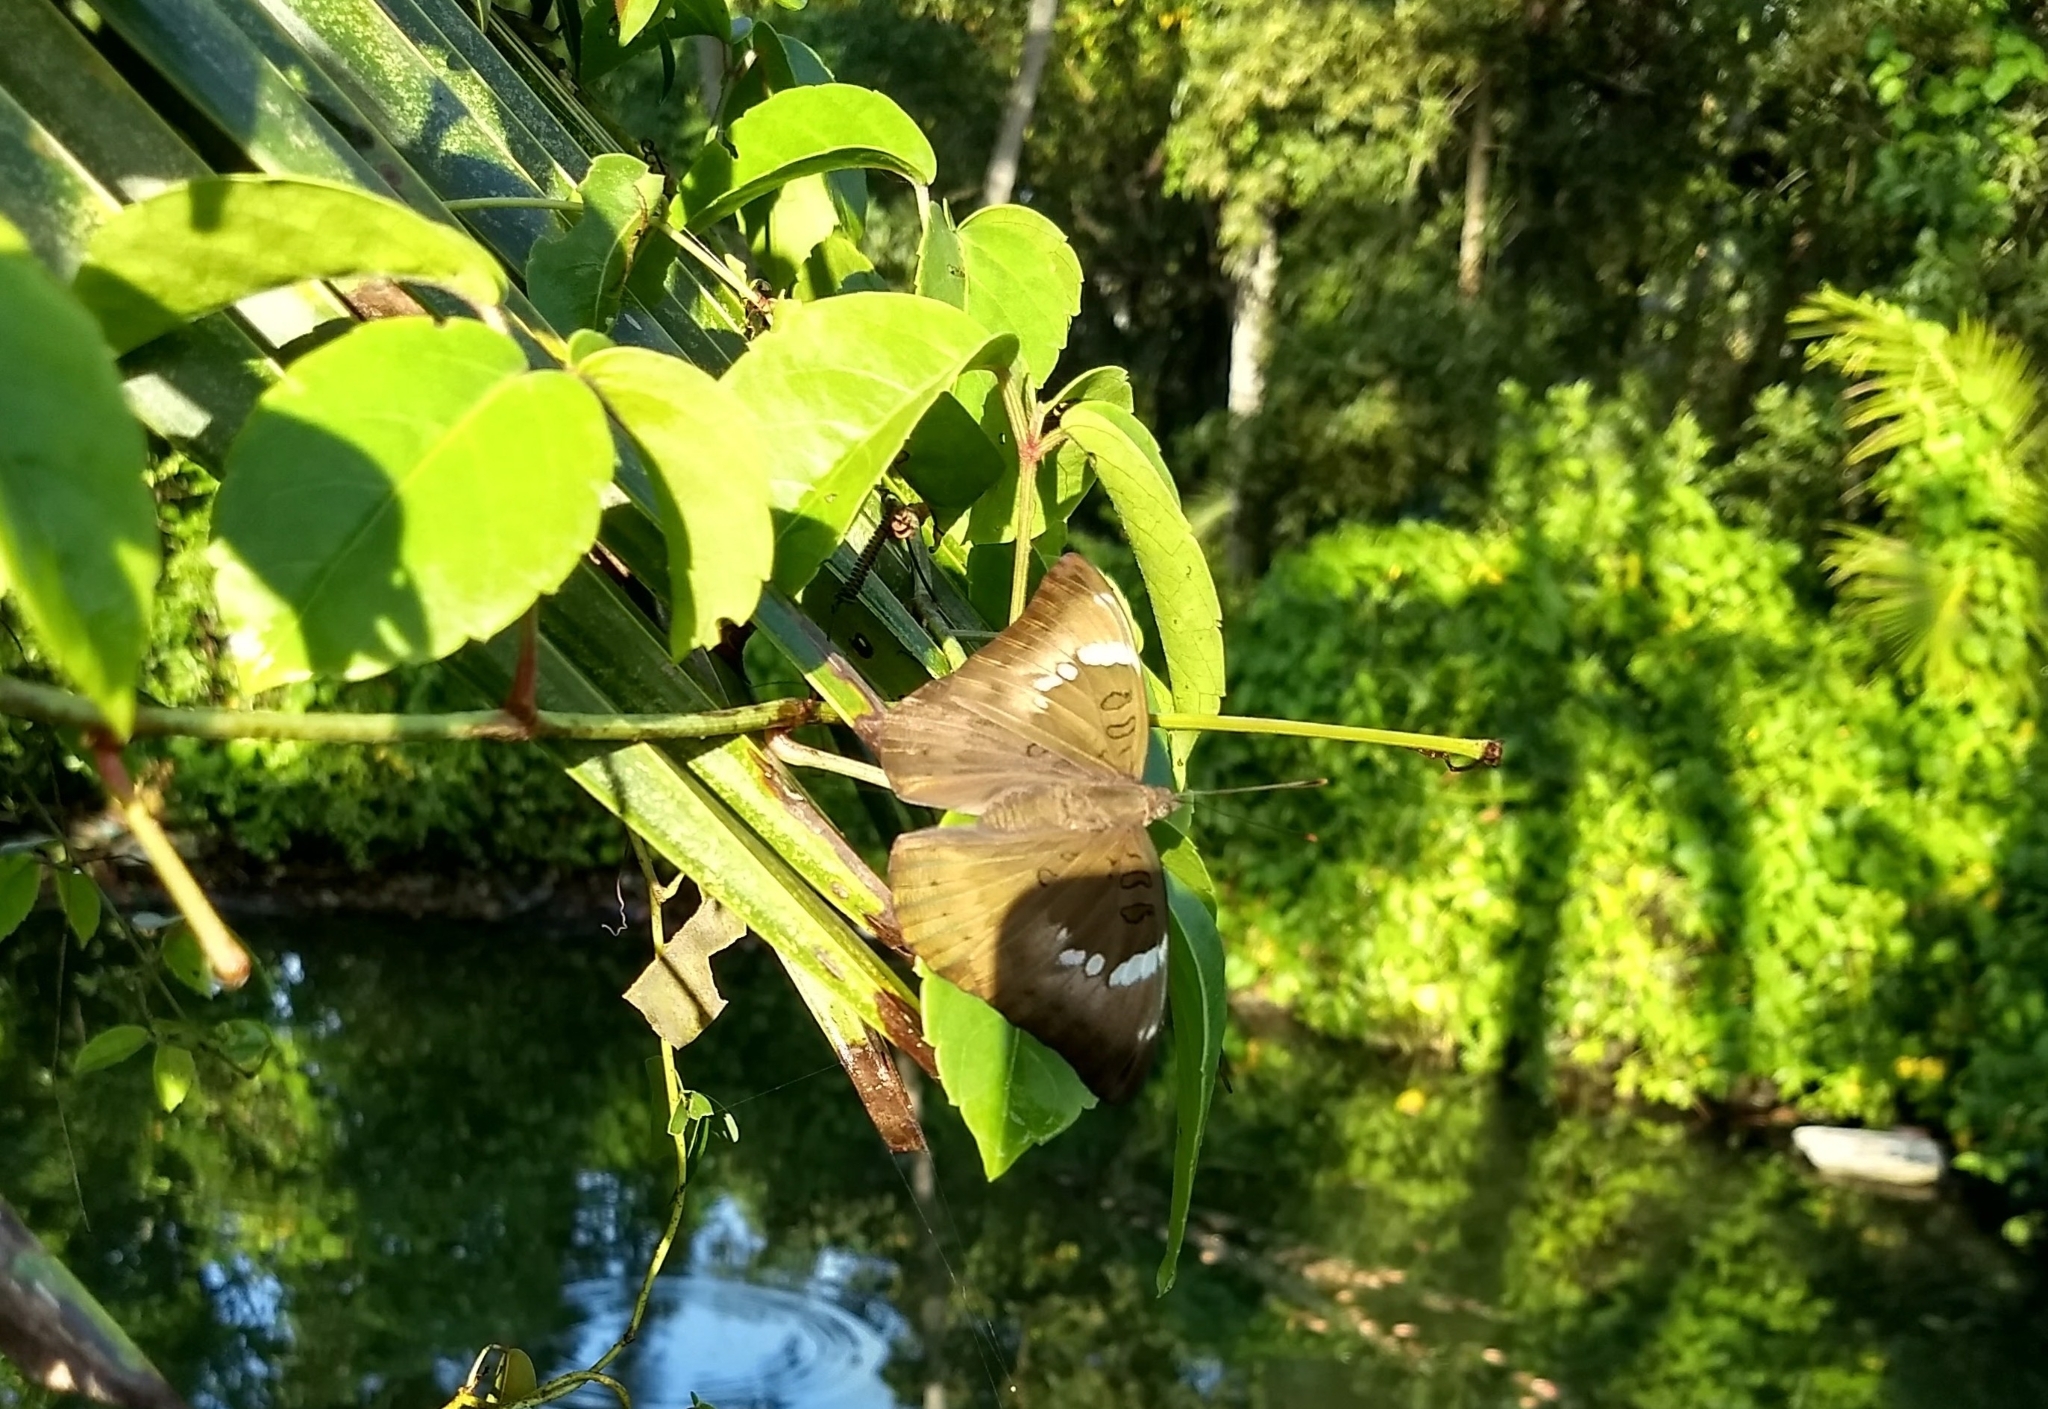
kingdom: Animalia
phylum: Arthropoda
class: Insecta
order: Lepidoptera
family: Nymphalidae
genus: Euthalia
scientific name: Euthalia aconthea
